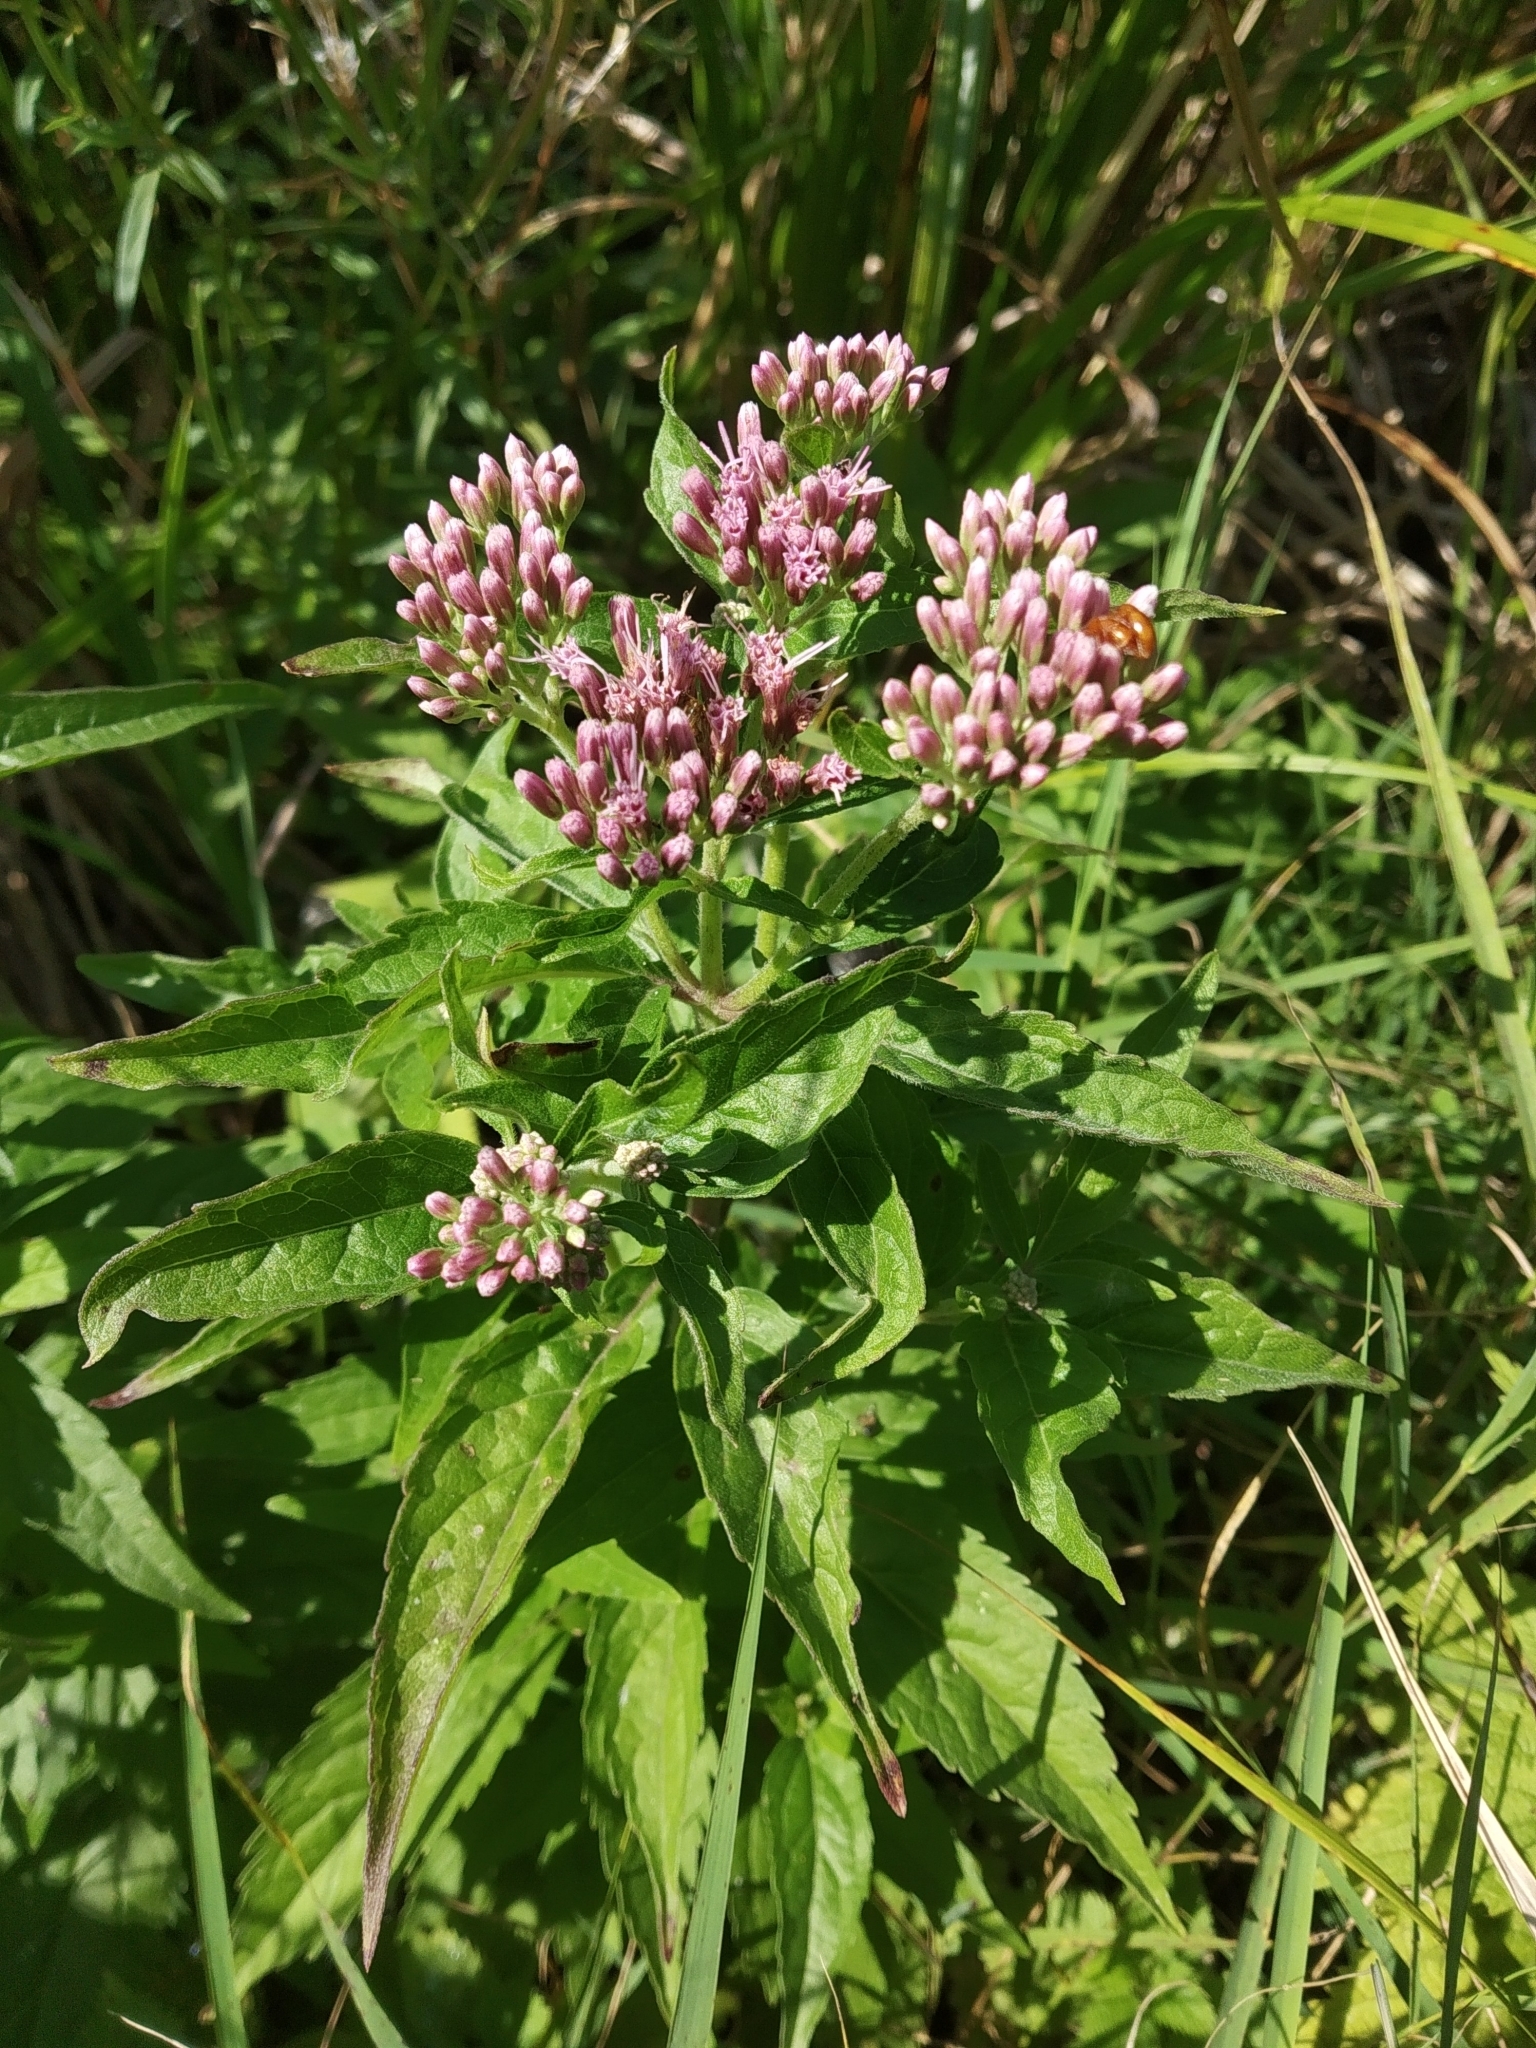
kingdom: Plantae
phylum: Tracheophyta
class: Magnoliopsida
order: Asterales
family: Asteraceae
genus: Eupatorium
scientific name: Eupatorium cannabinum
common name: Hemp-agrimony
